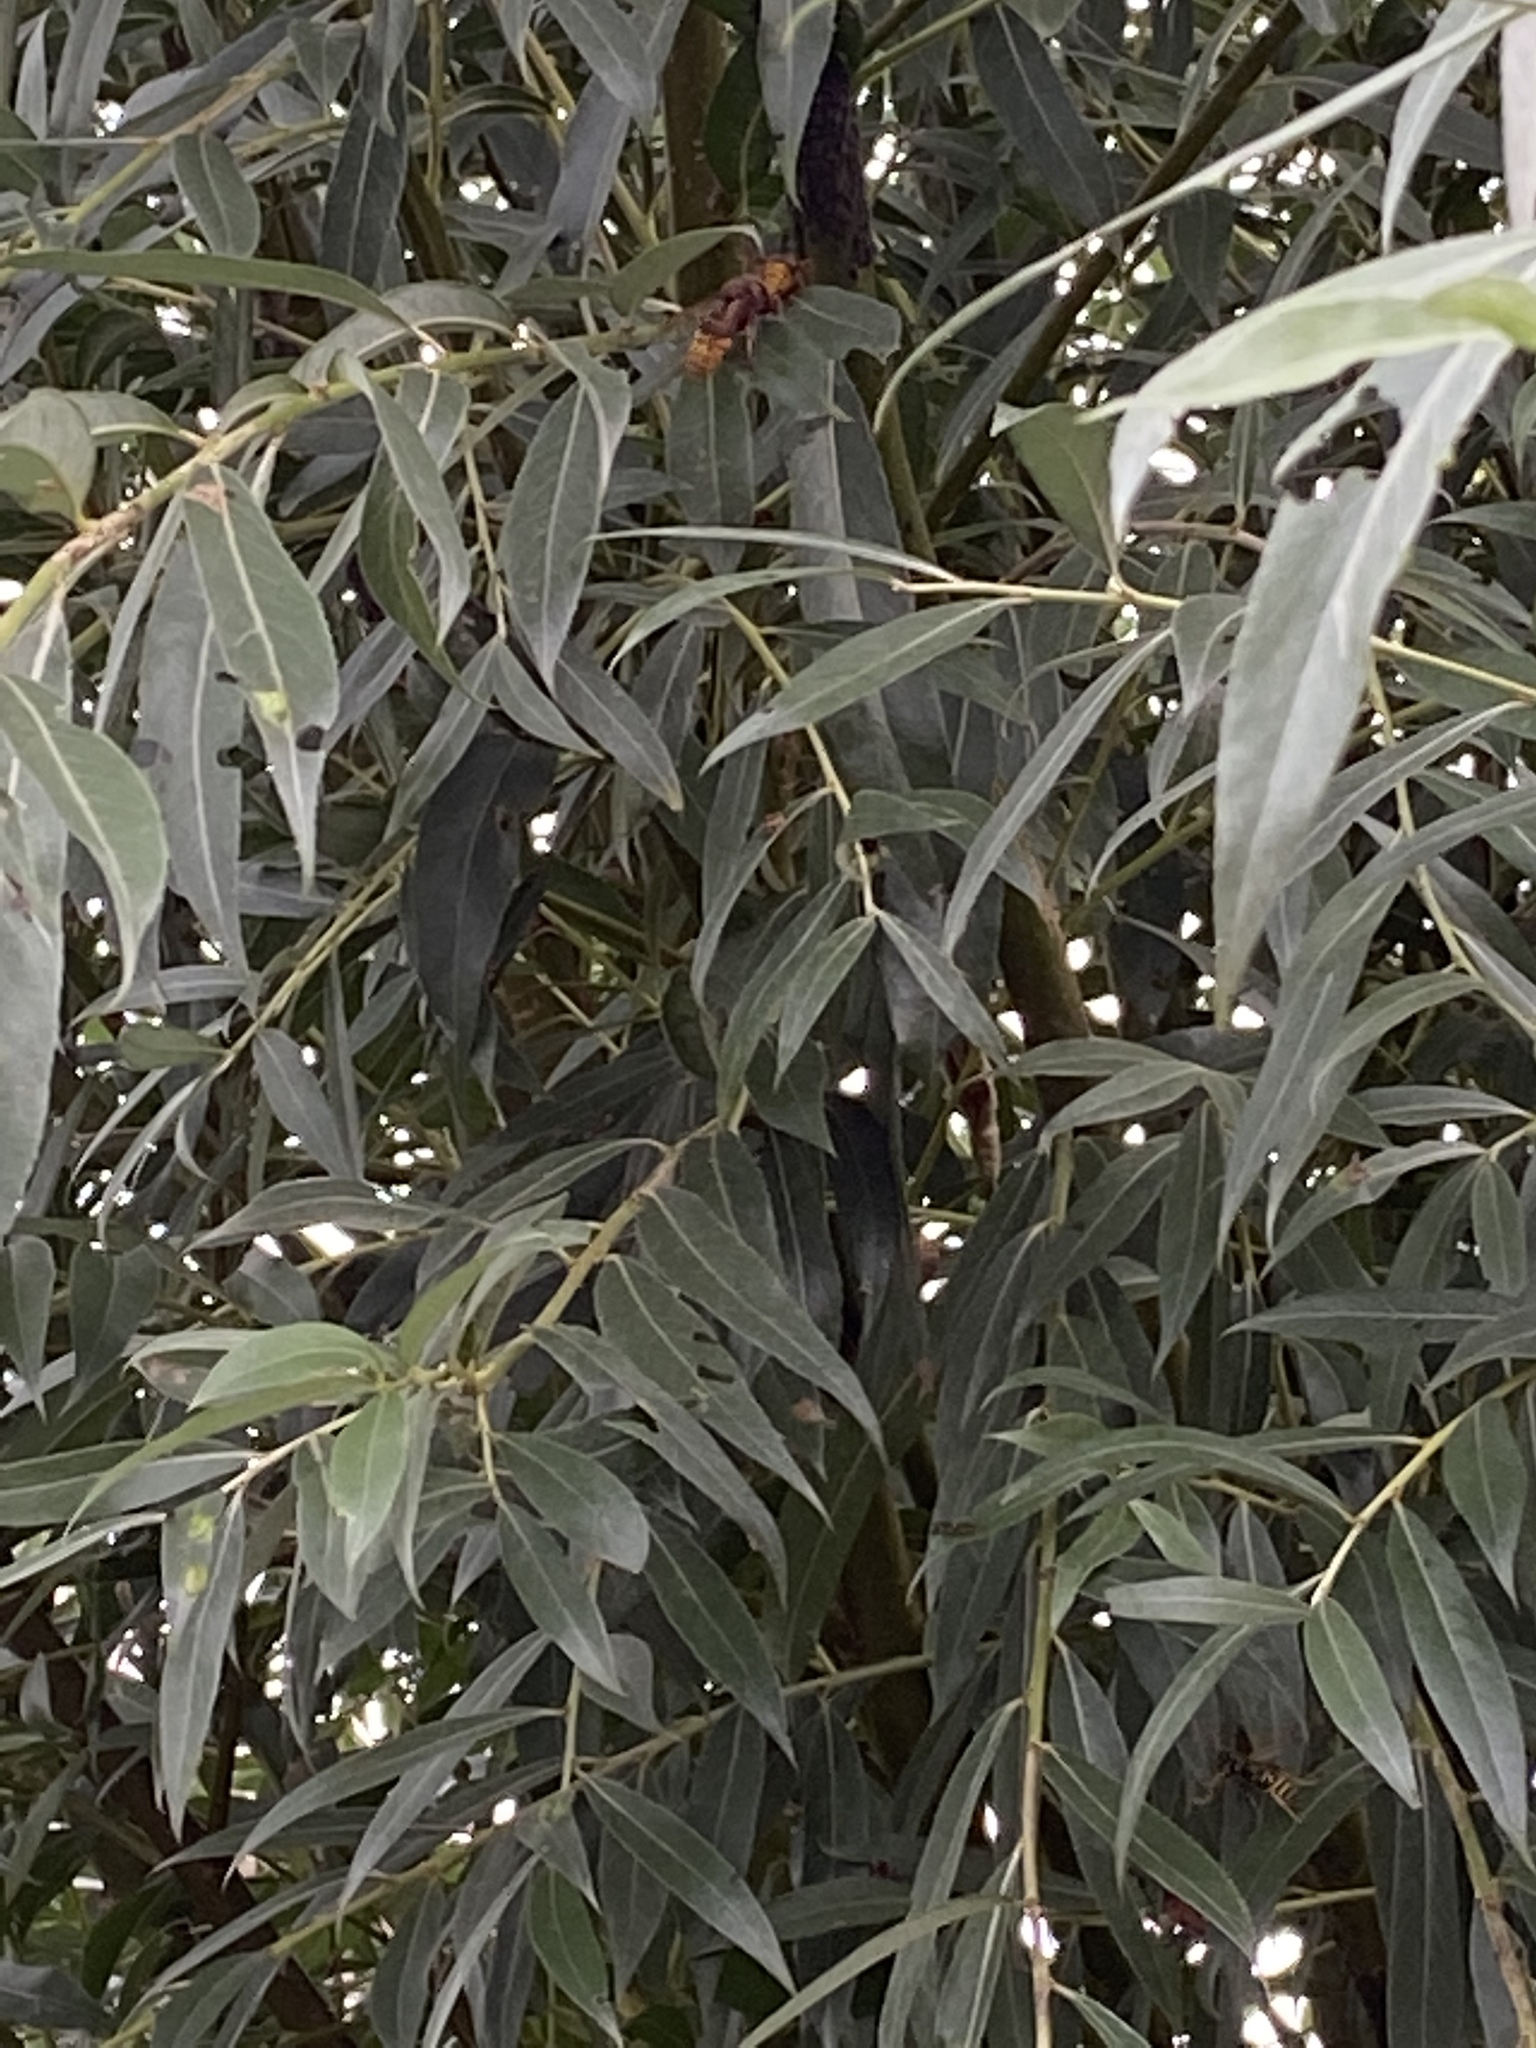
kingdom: Animalia
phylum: Arthropoda
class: Insecta
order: Hymenoptera
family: Vespidae
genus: Vespa
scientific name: Vespa crabro
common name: Hornet
